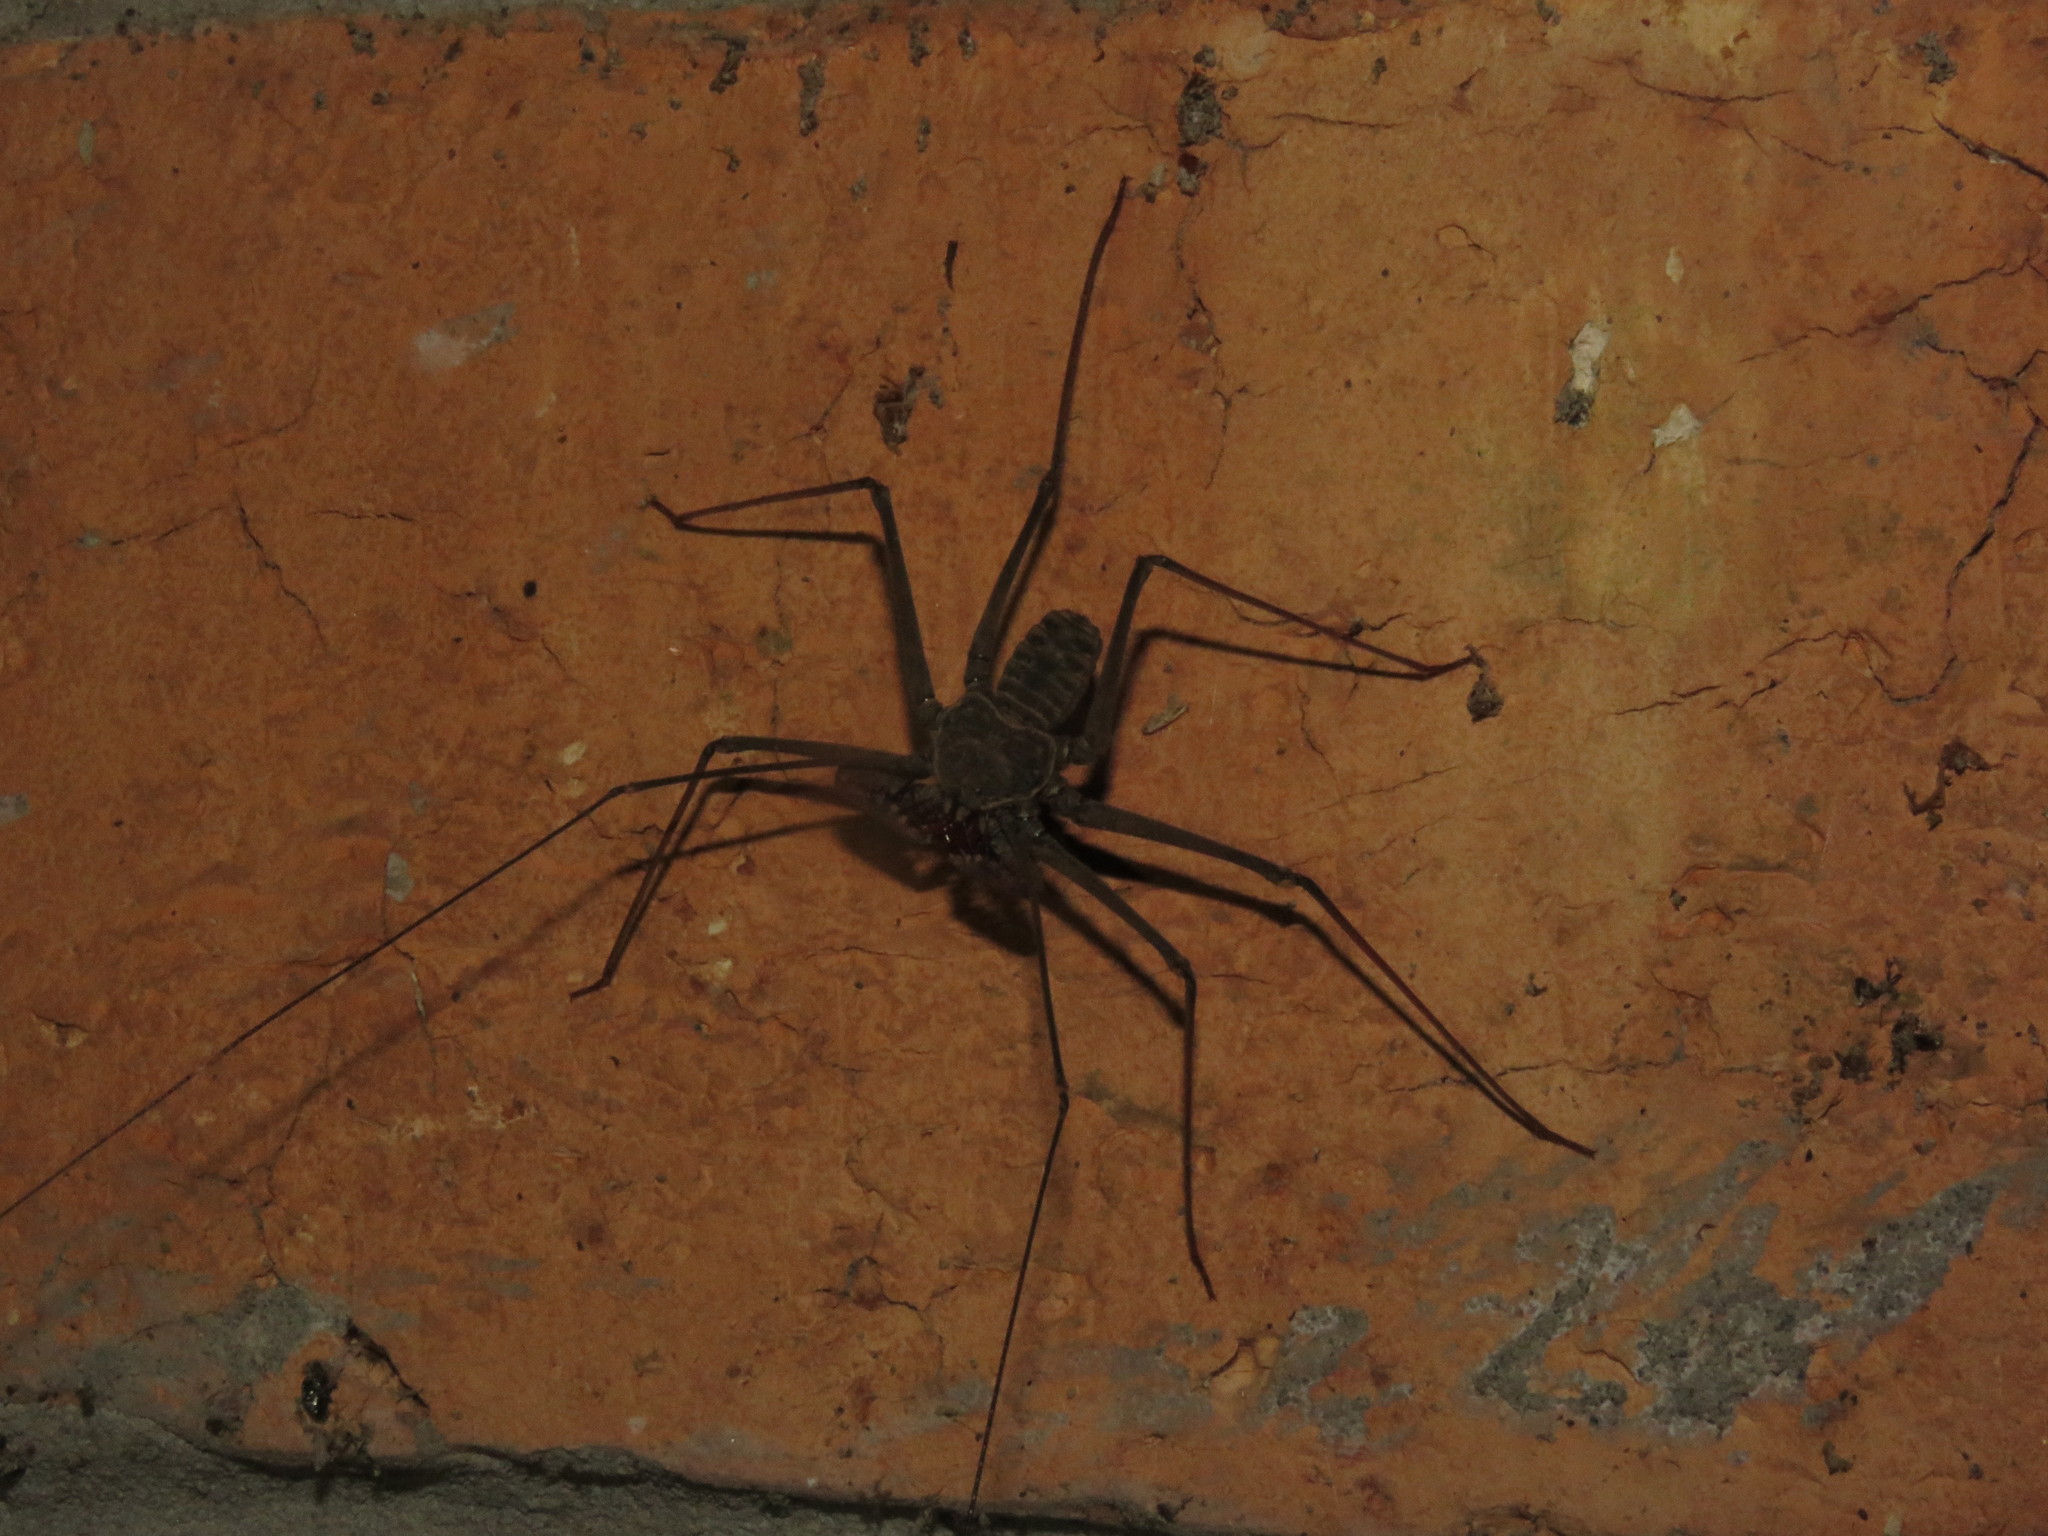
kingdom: Animalia
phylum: Arthropoda
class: Arachnida
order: Amblypygi
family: Phrynidae
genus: Heterophrynus
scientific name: Heterophrynus longicornis
